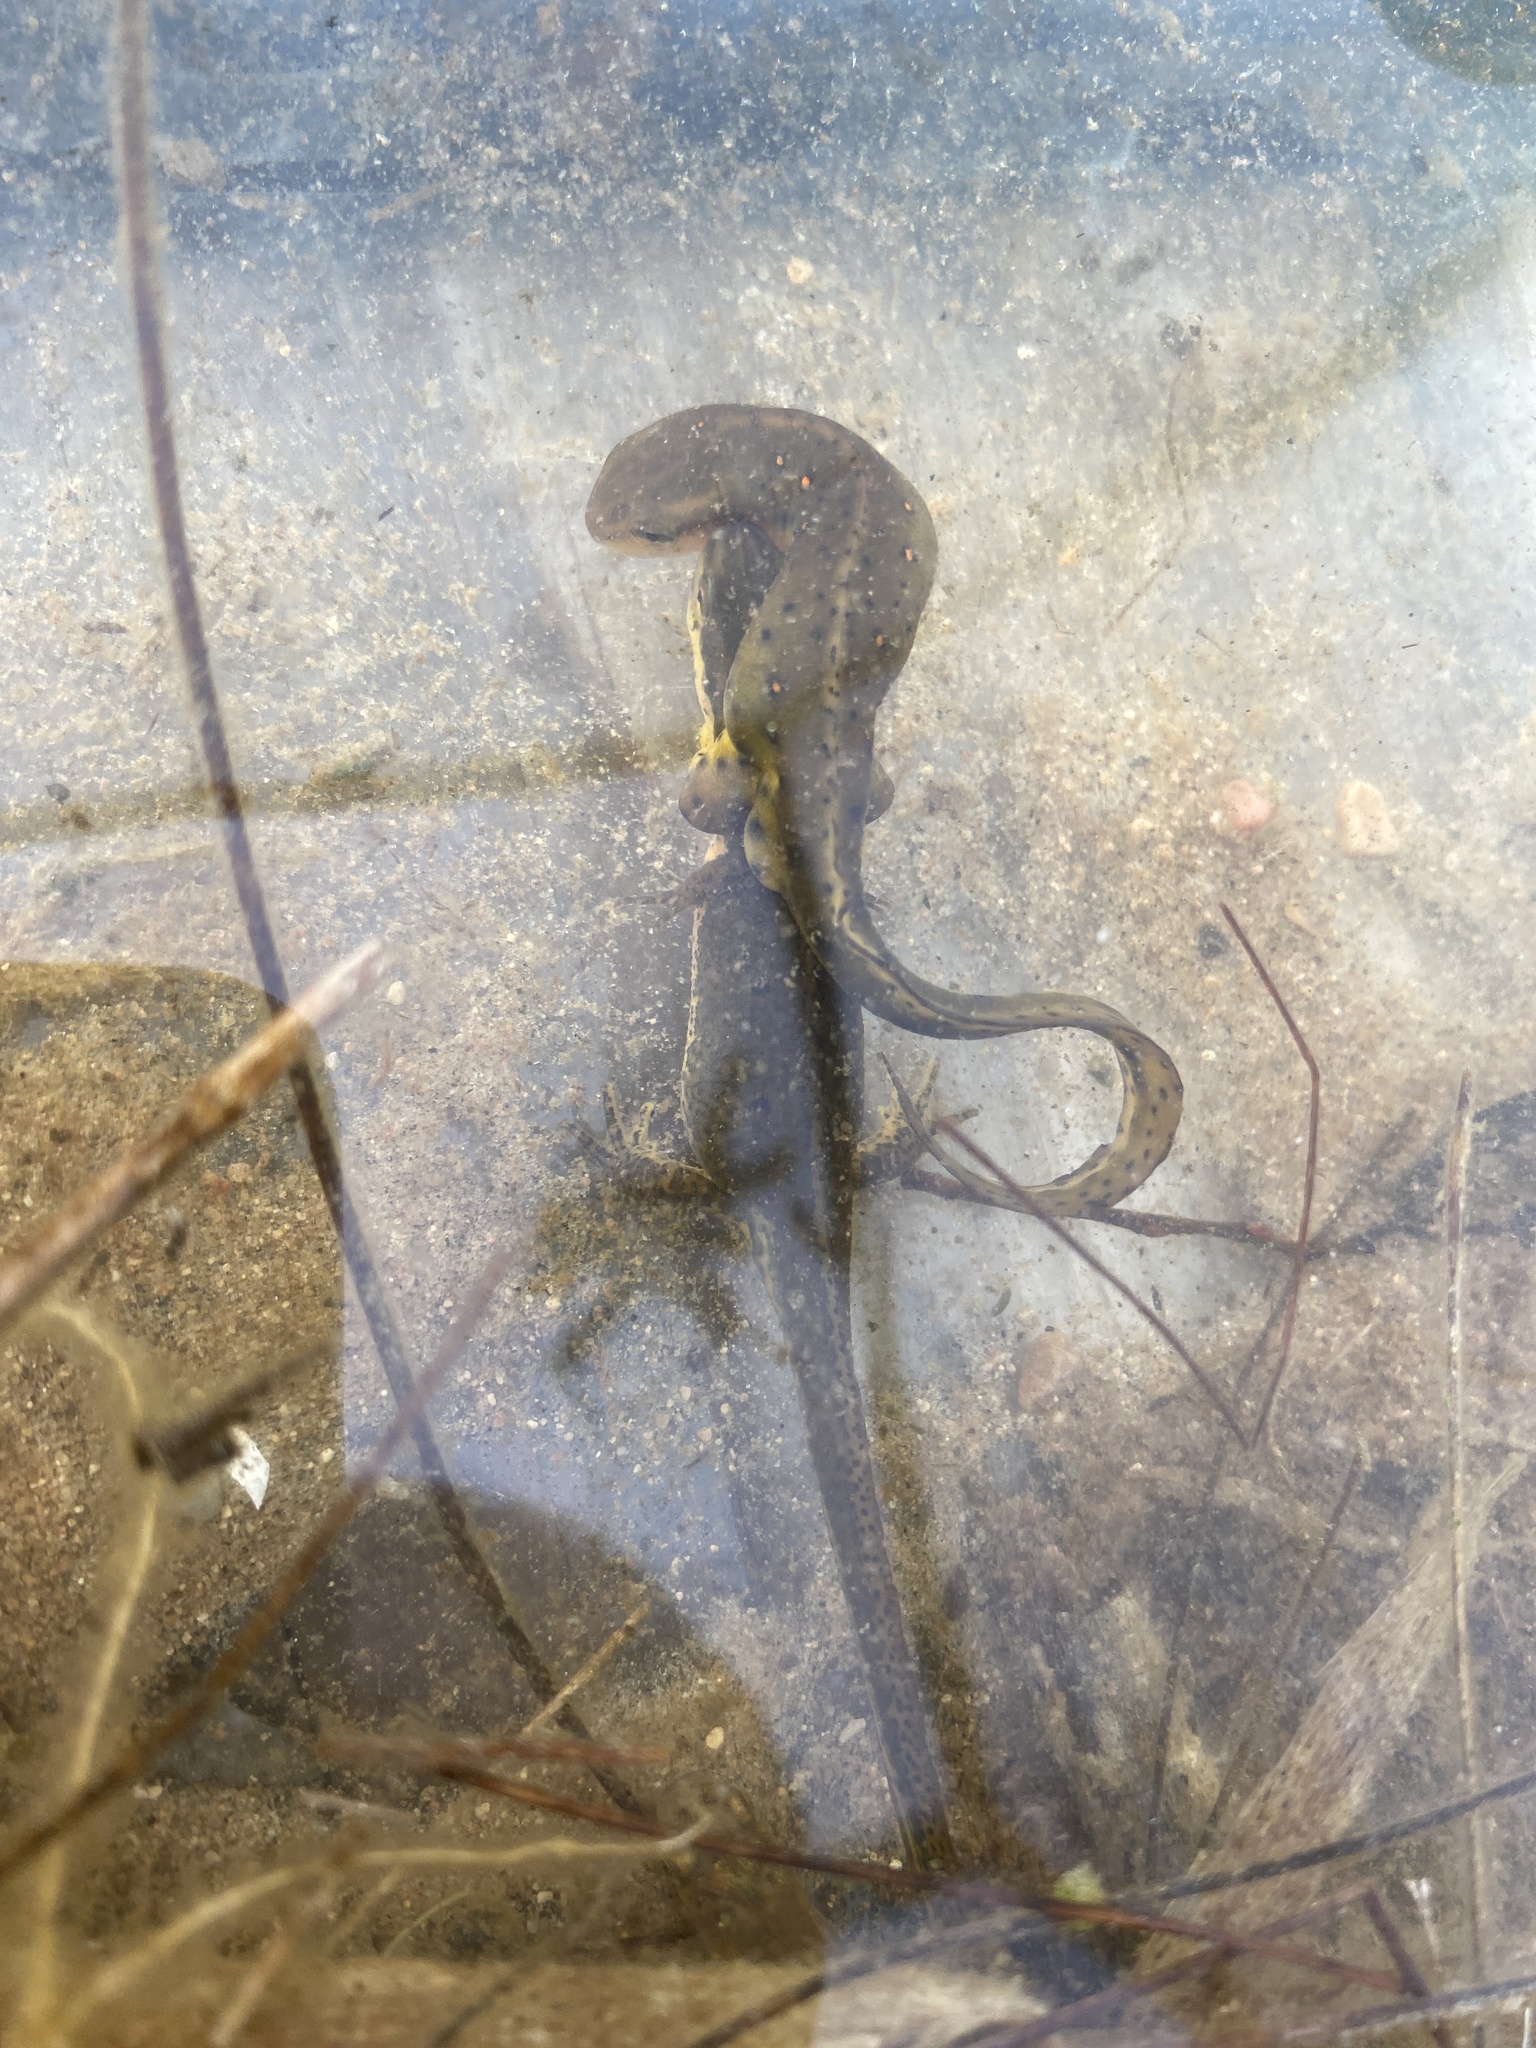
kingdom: Animalia
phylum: Chordata
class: Amphibia
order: Caudata
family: Salamandridae
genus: Notophthalmus
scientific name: Notophthalmus viridescens
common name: Eastern newt
